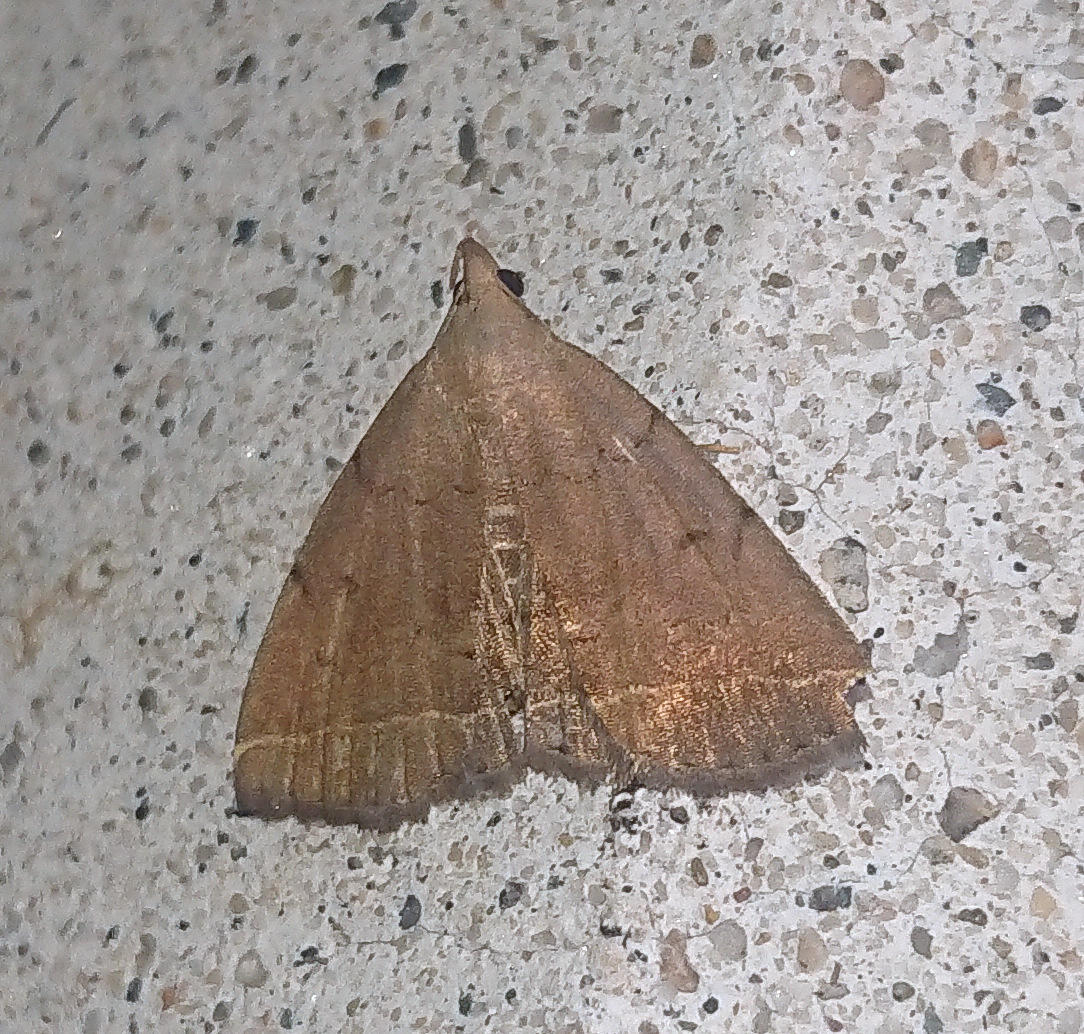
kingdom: Animalia
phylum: Arthropoda
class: Insecta
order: Lepidoptera
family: Erebidae
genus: Zanclognatha
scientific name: Zanclognatha protumnusalis
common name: Complex fan-foot
